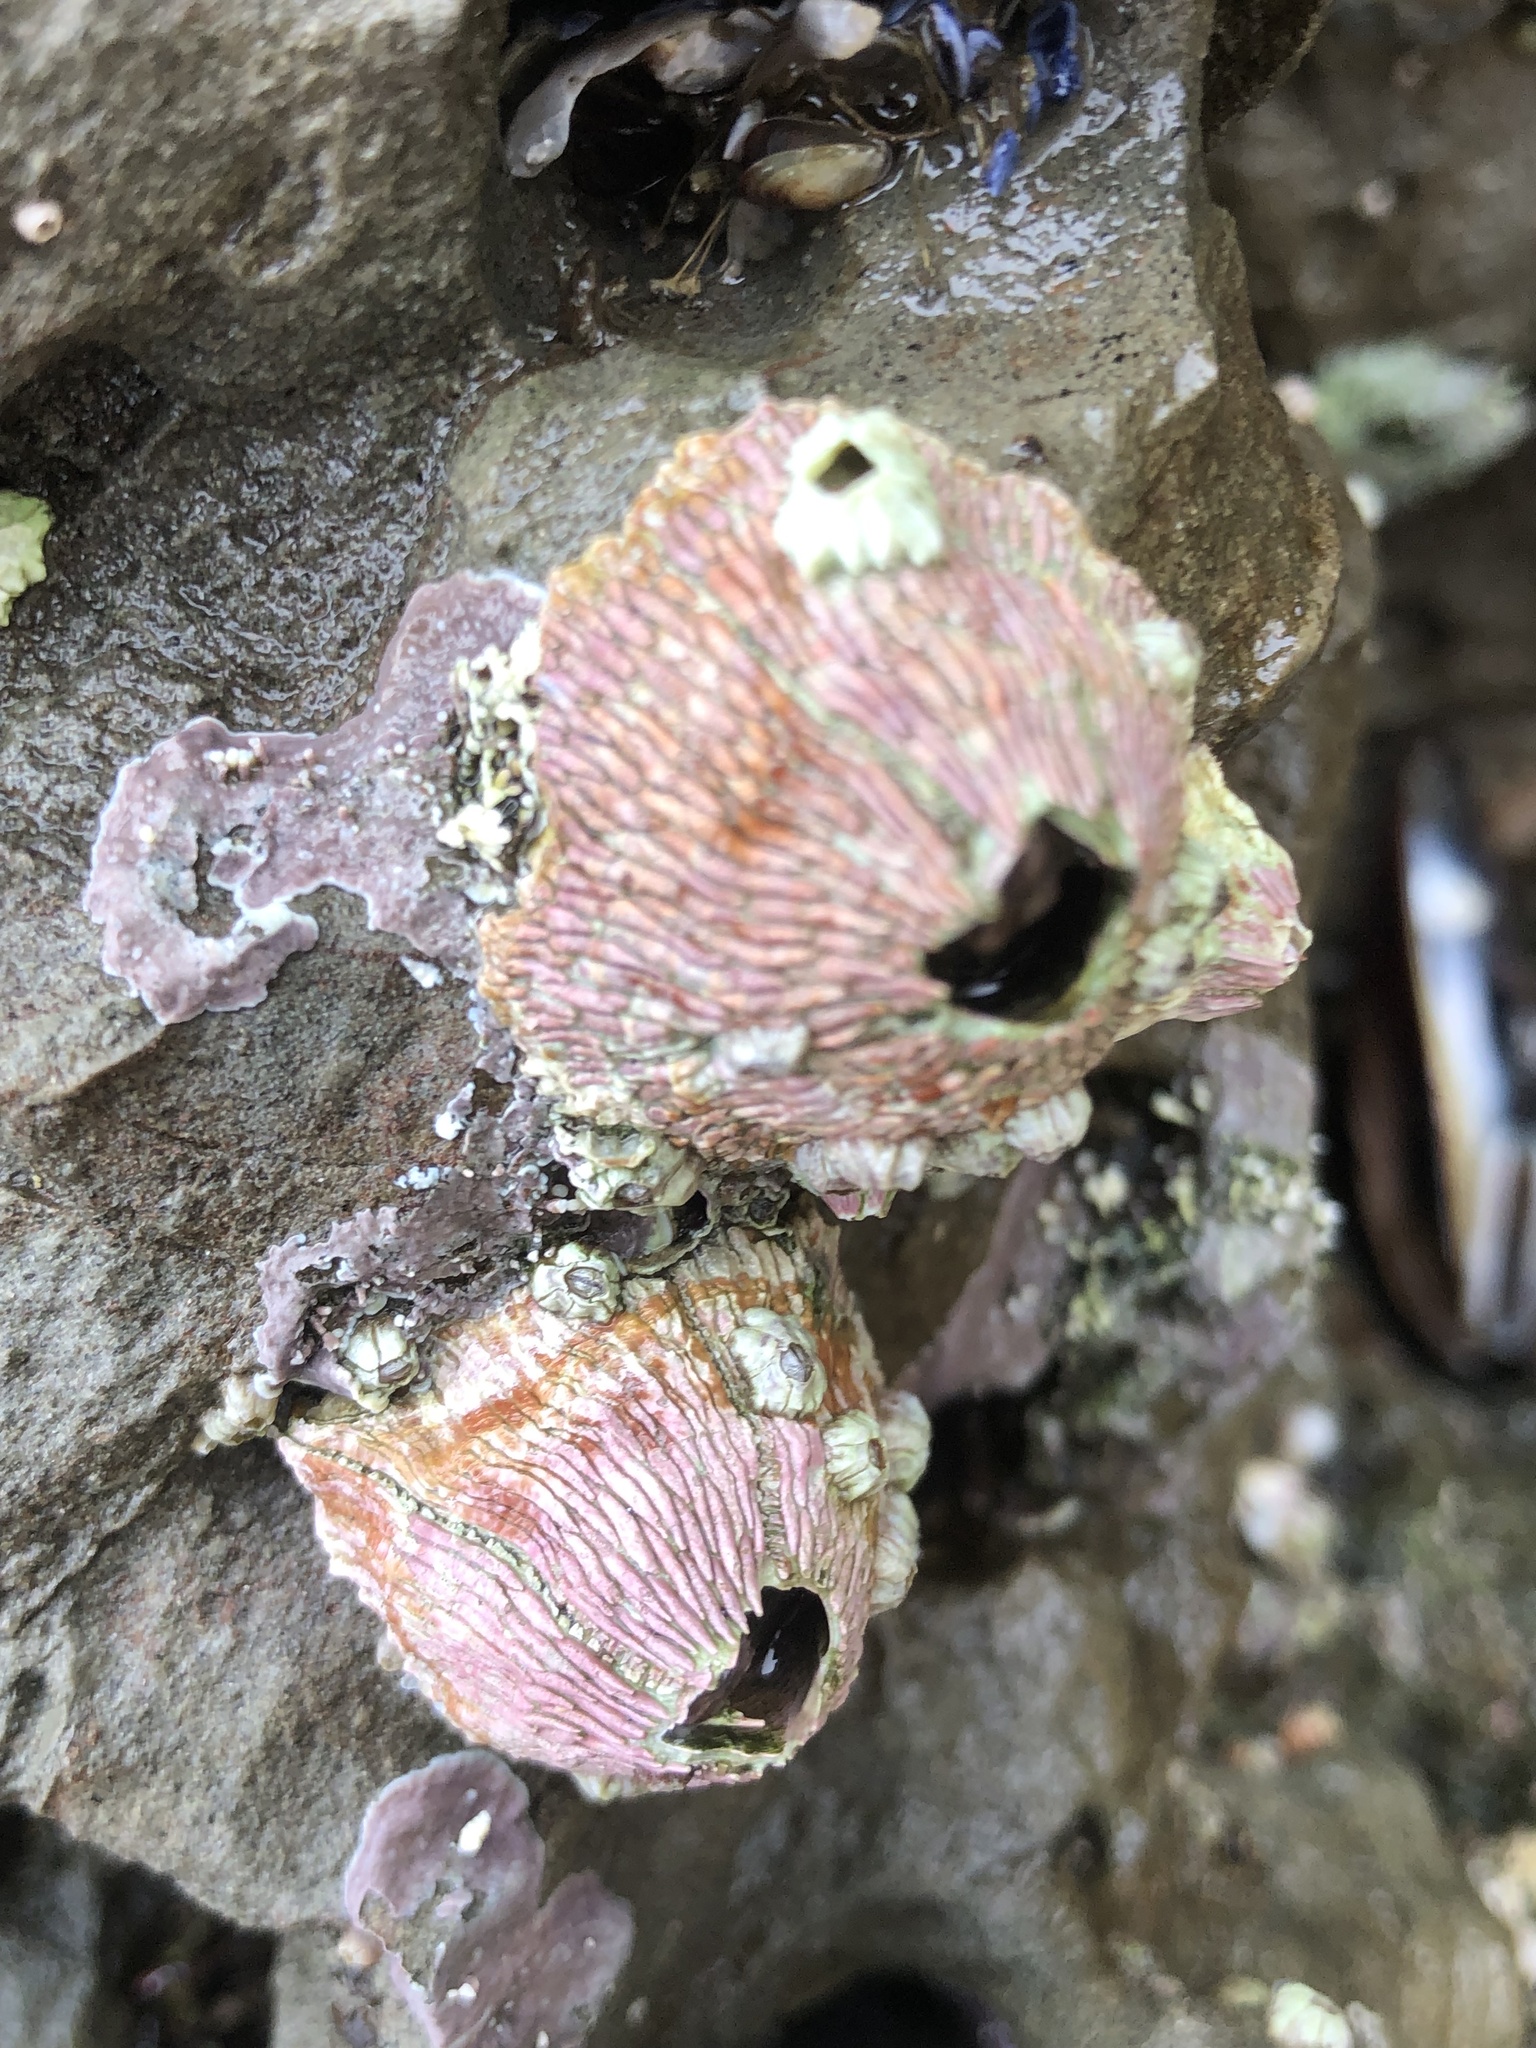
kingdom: Animalia
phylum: Arthropoda
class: Maxillopoda
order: Sessilia
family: Tetraclitidae
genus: Tetraclita
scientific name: Tetraclita rubescens
